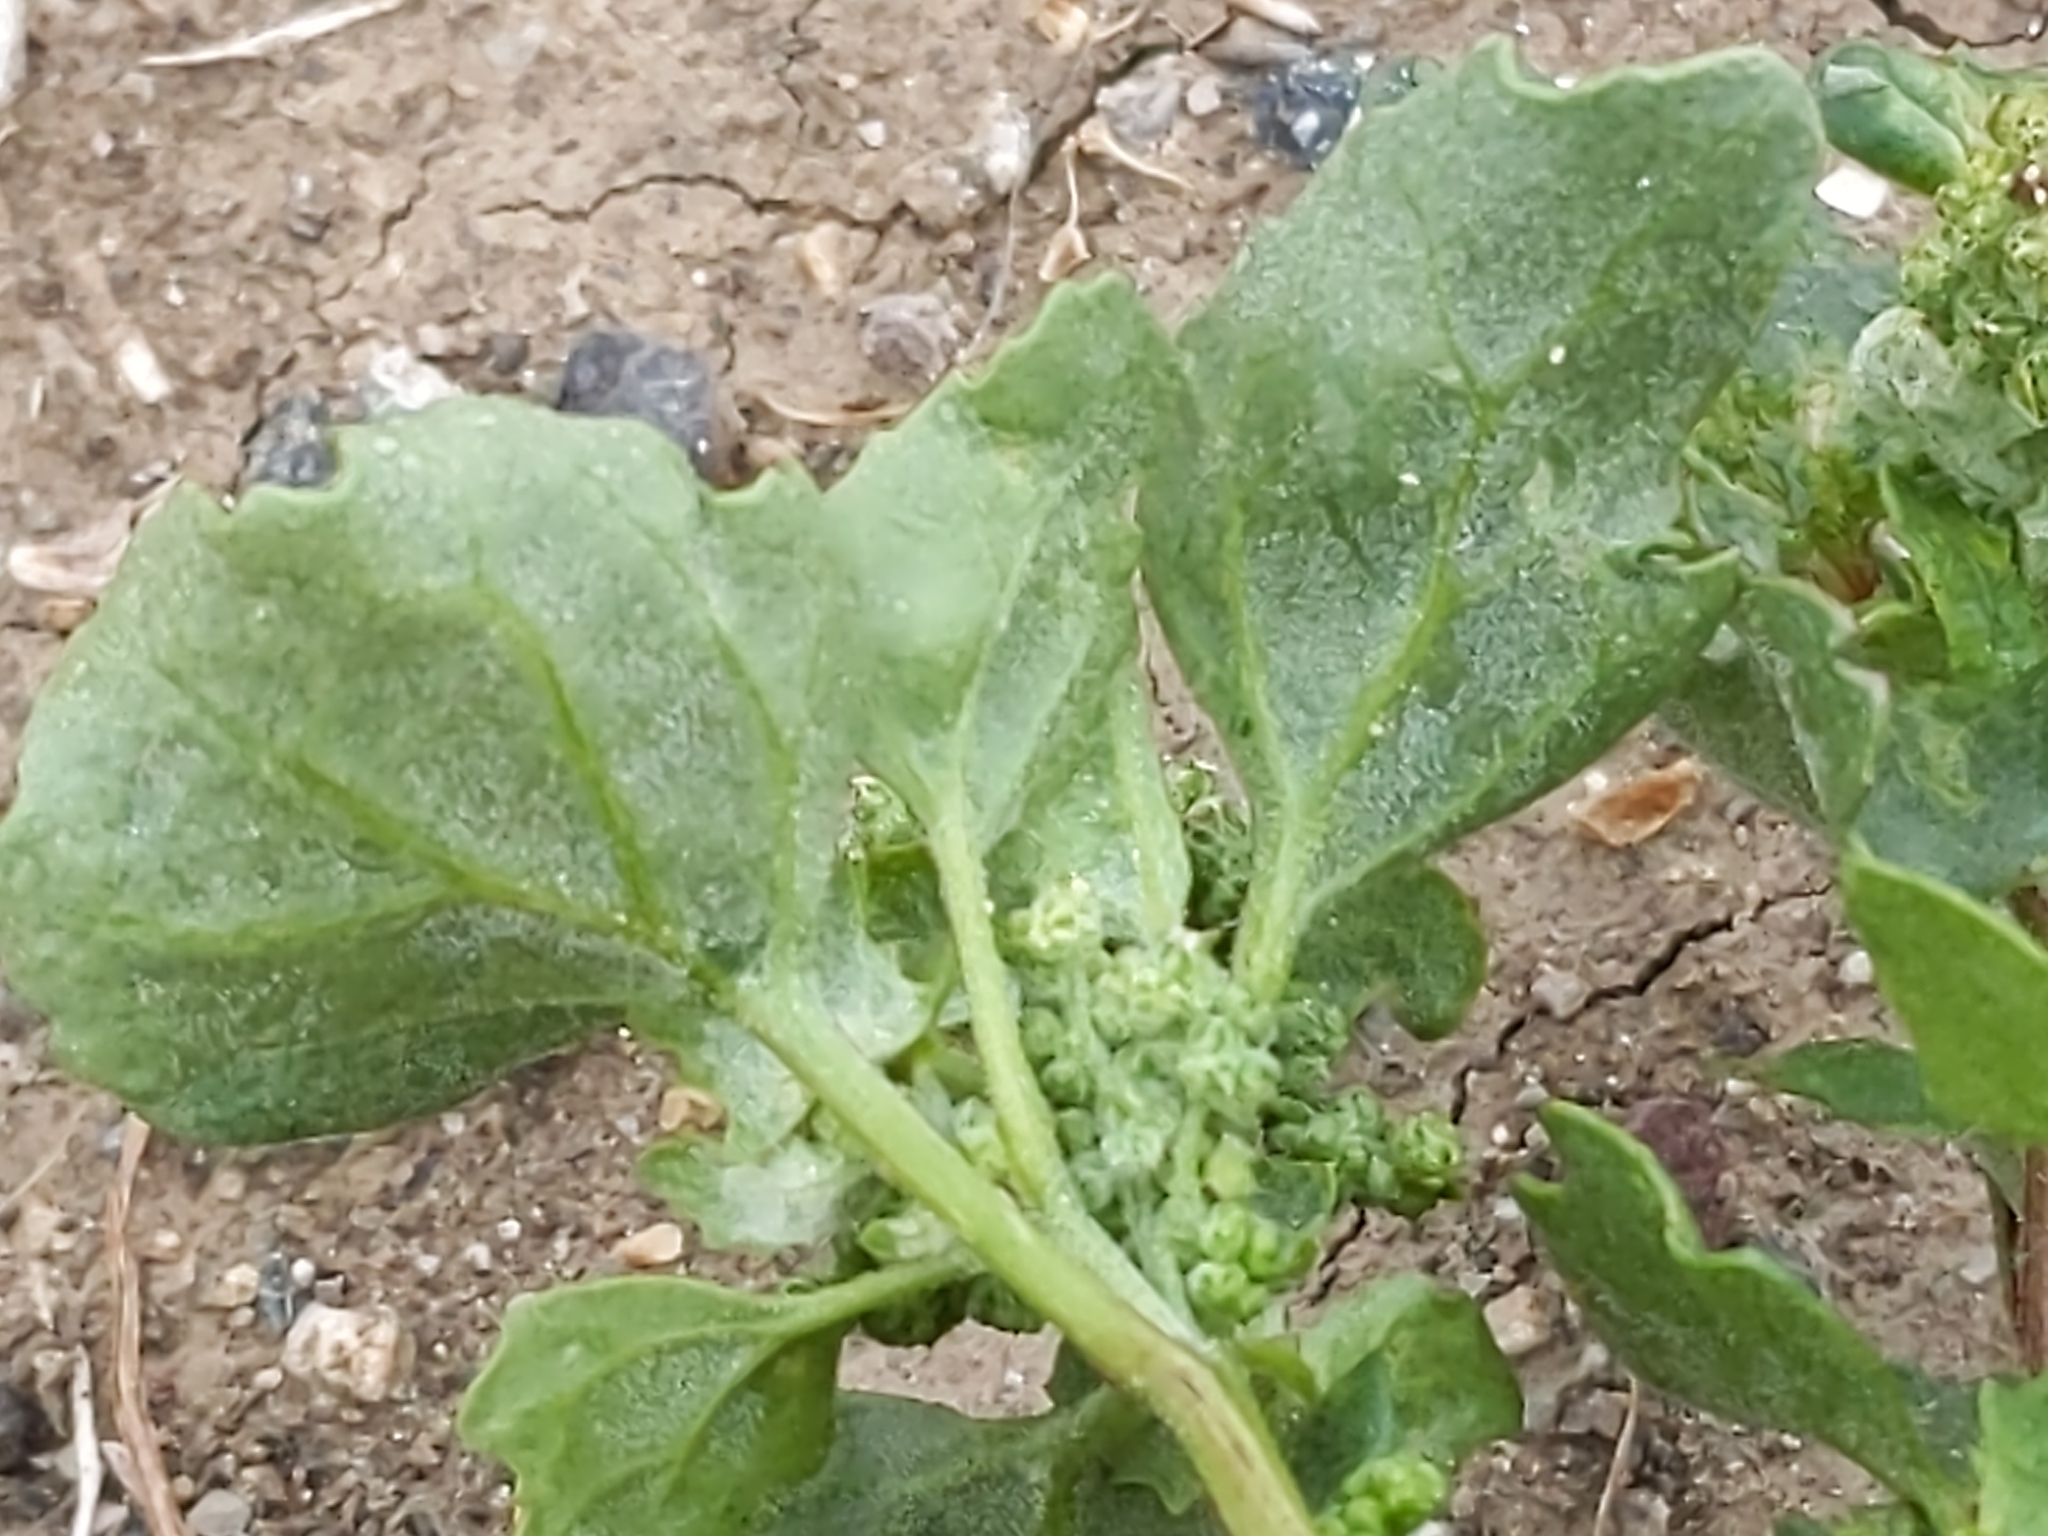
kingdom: Plantae
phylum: Tracheophyta
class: Magnoliopsida
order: Caryophyllales
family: Amaranthaceae
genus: Chenopodiastrum
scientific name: Chenopodiastrum murale
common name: Sowbane
